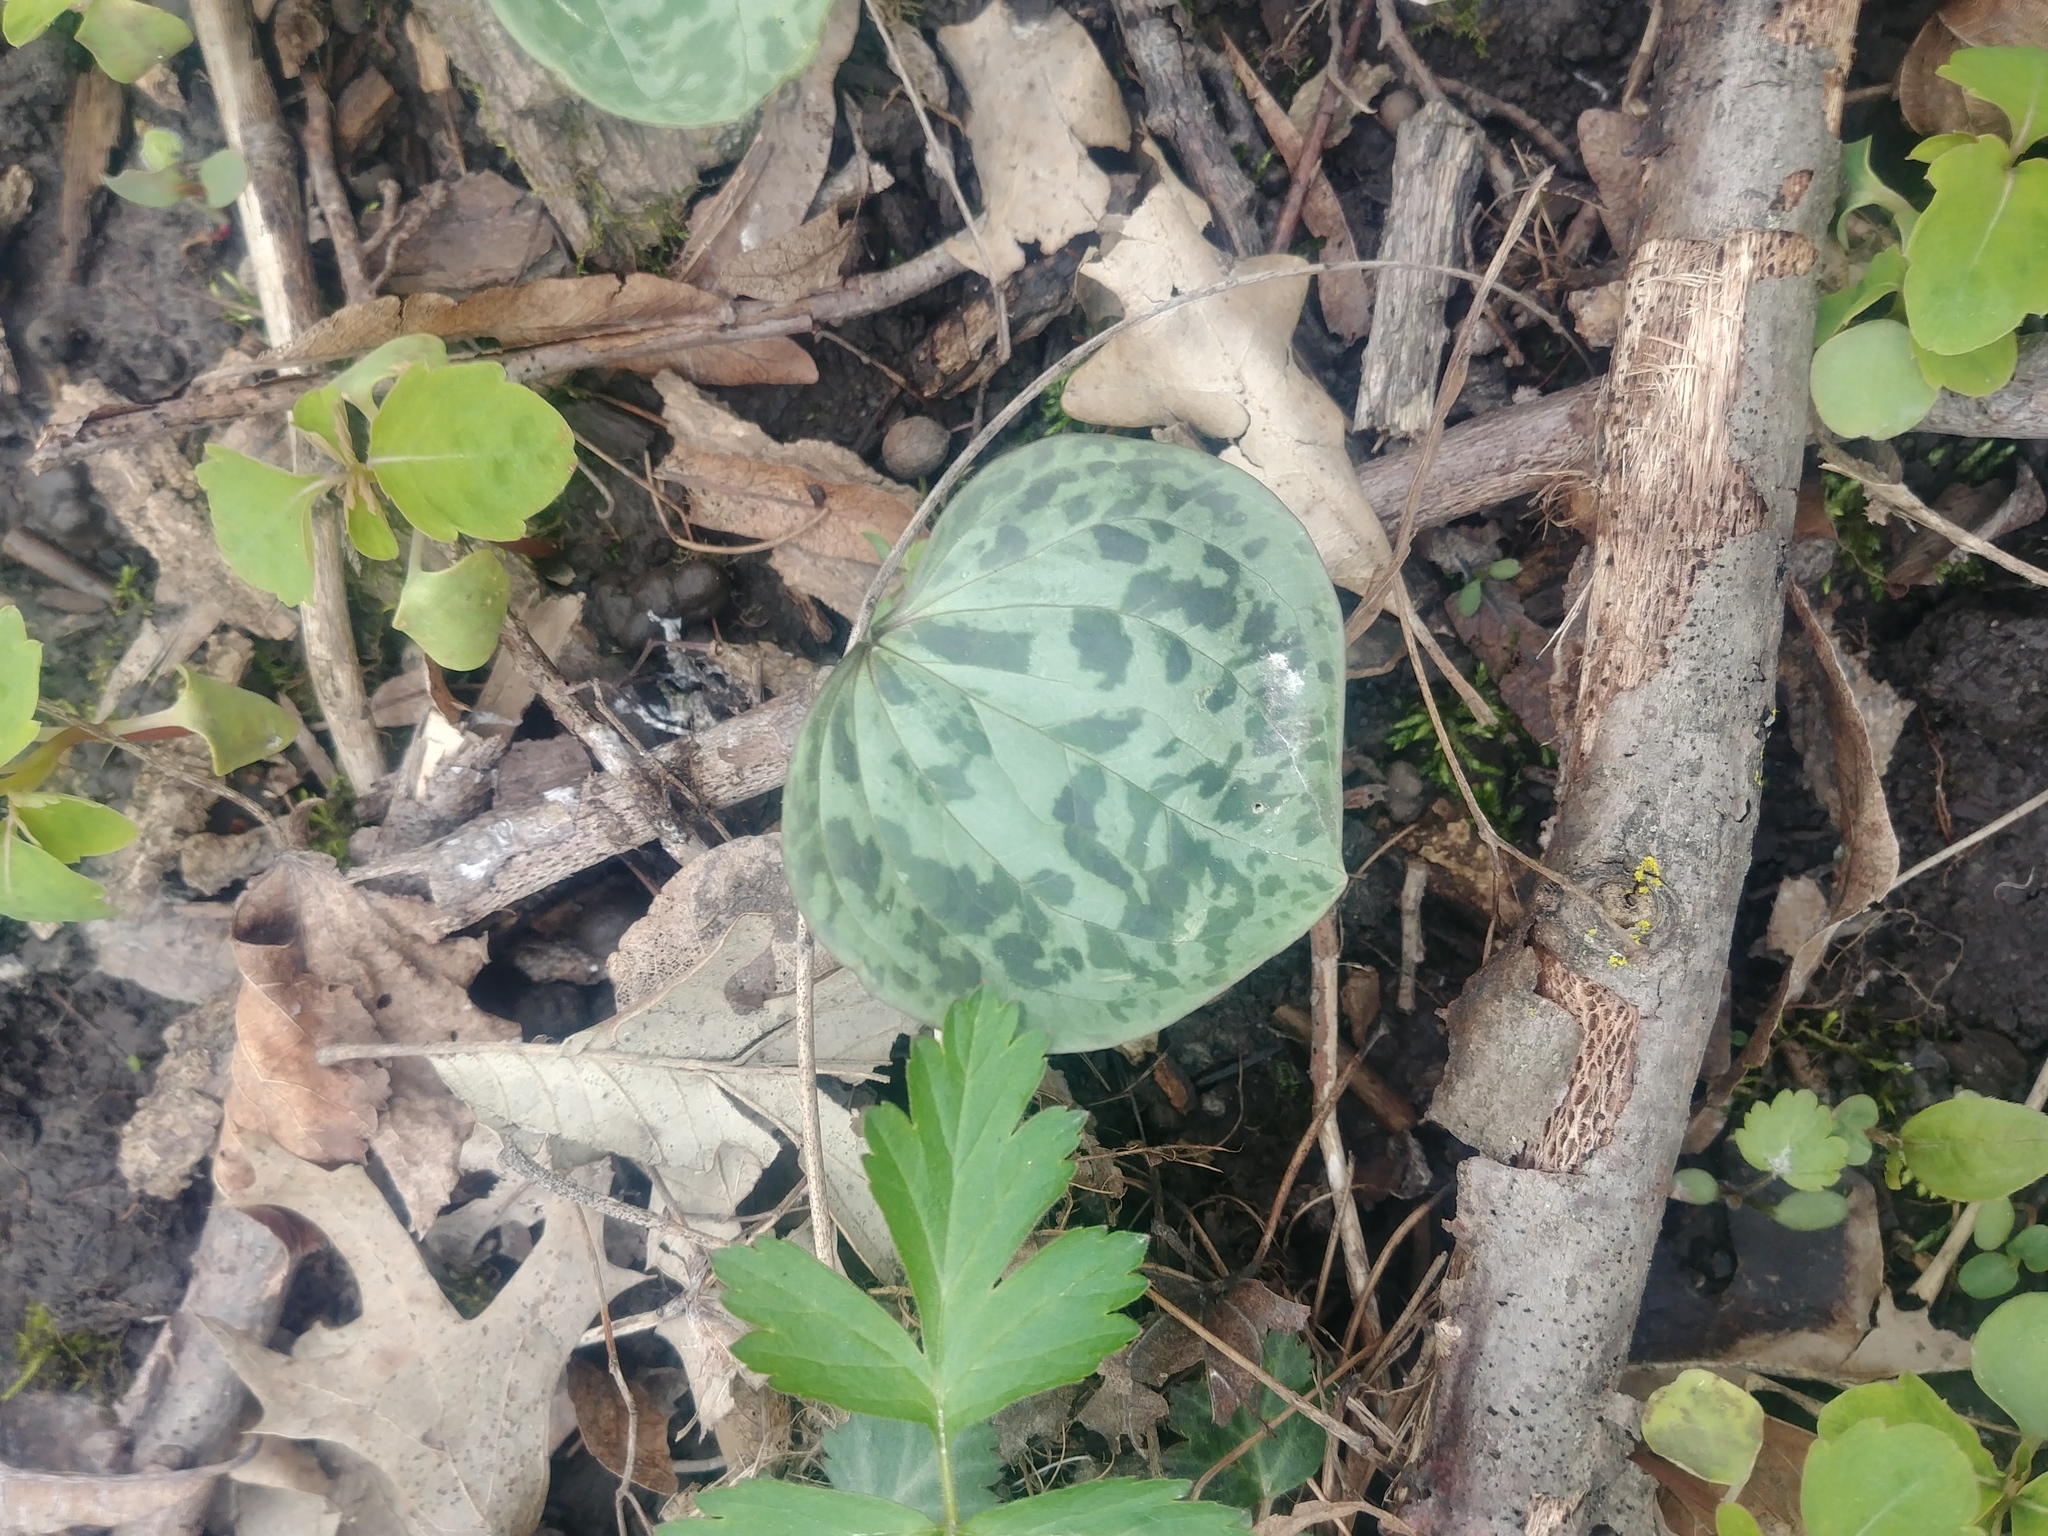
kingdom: Plantae
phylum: Tracheophyta
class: Liliopsida
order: Liliales
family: Melanthiaceae
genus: Trillium
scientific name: Trillium recurvatum
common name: Bloody butcher
